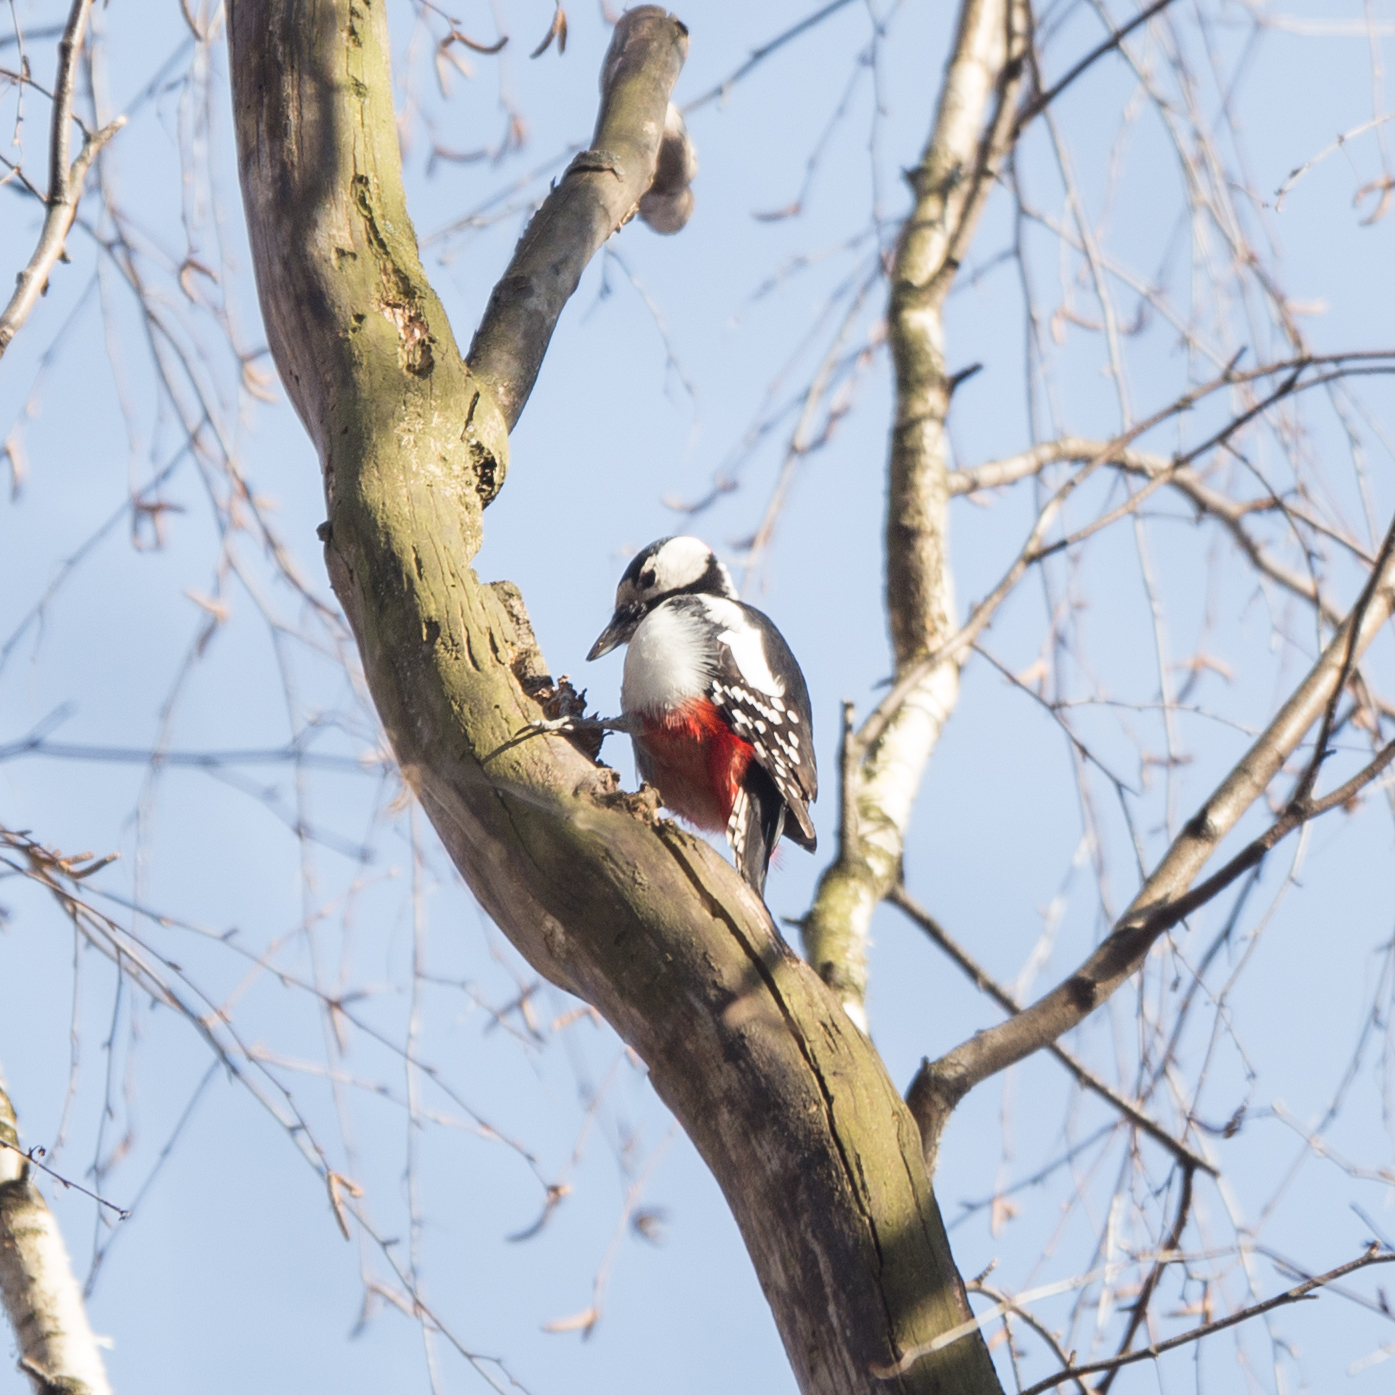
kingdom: Animalia
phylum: Chordata
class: Aves
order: Piciformes
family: Picidae
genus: Dendrocopos
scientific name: Dendrocopos major
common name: Great spotted woodpecker
